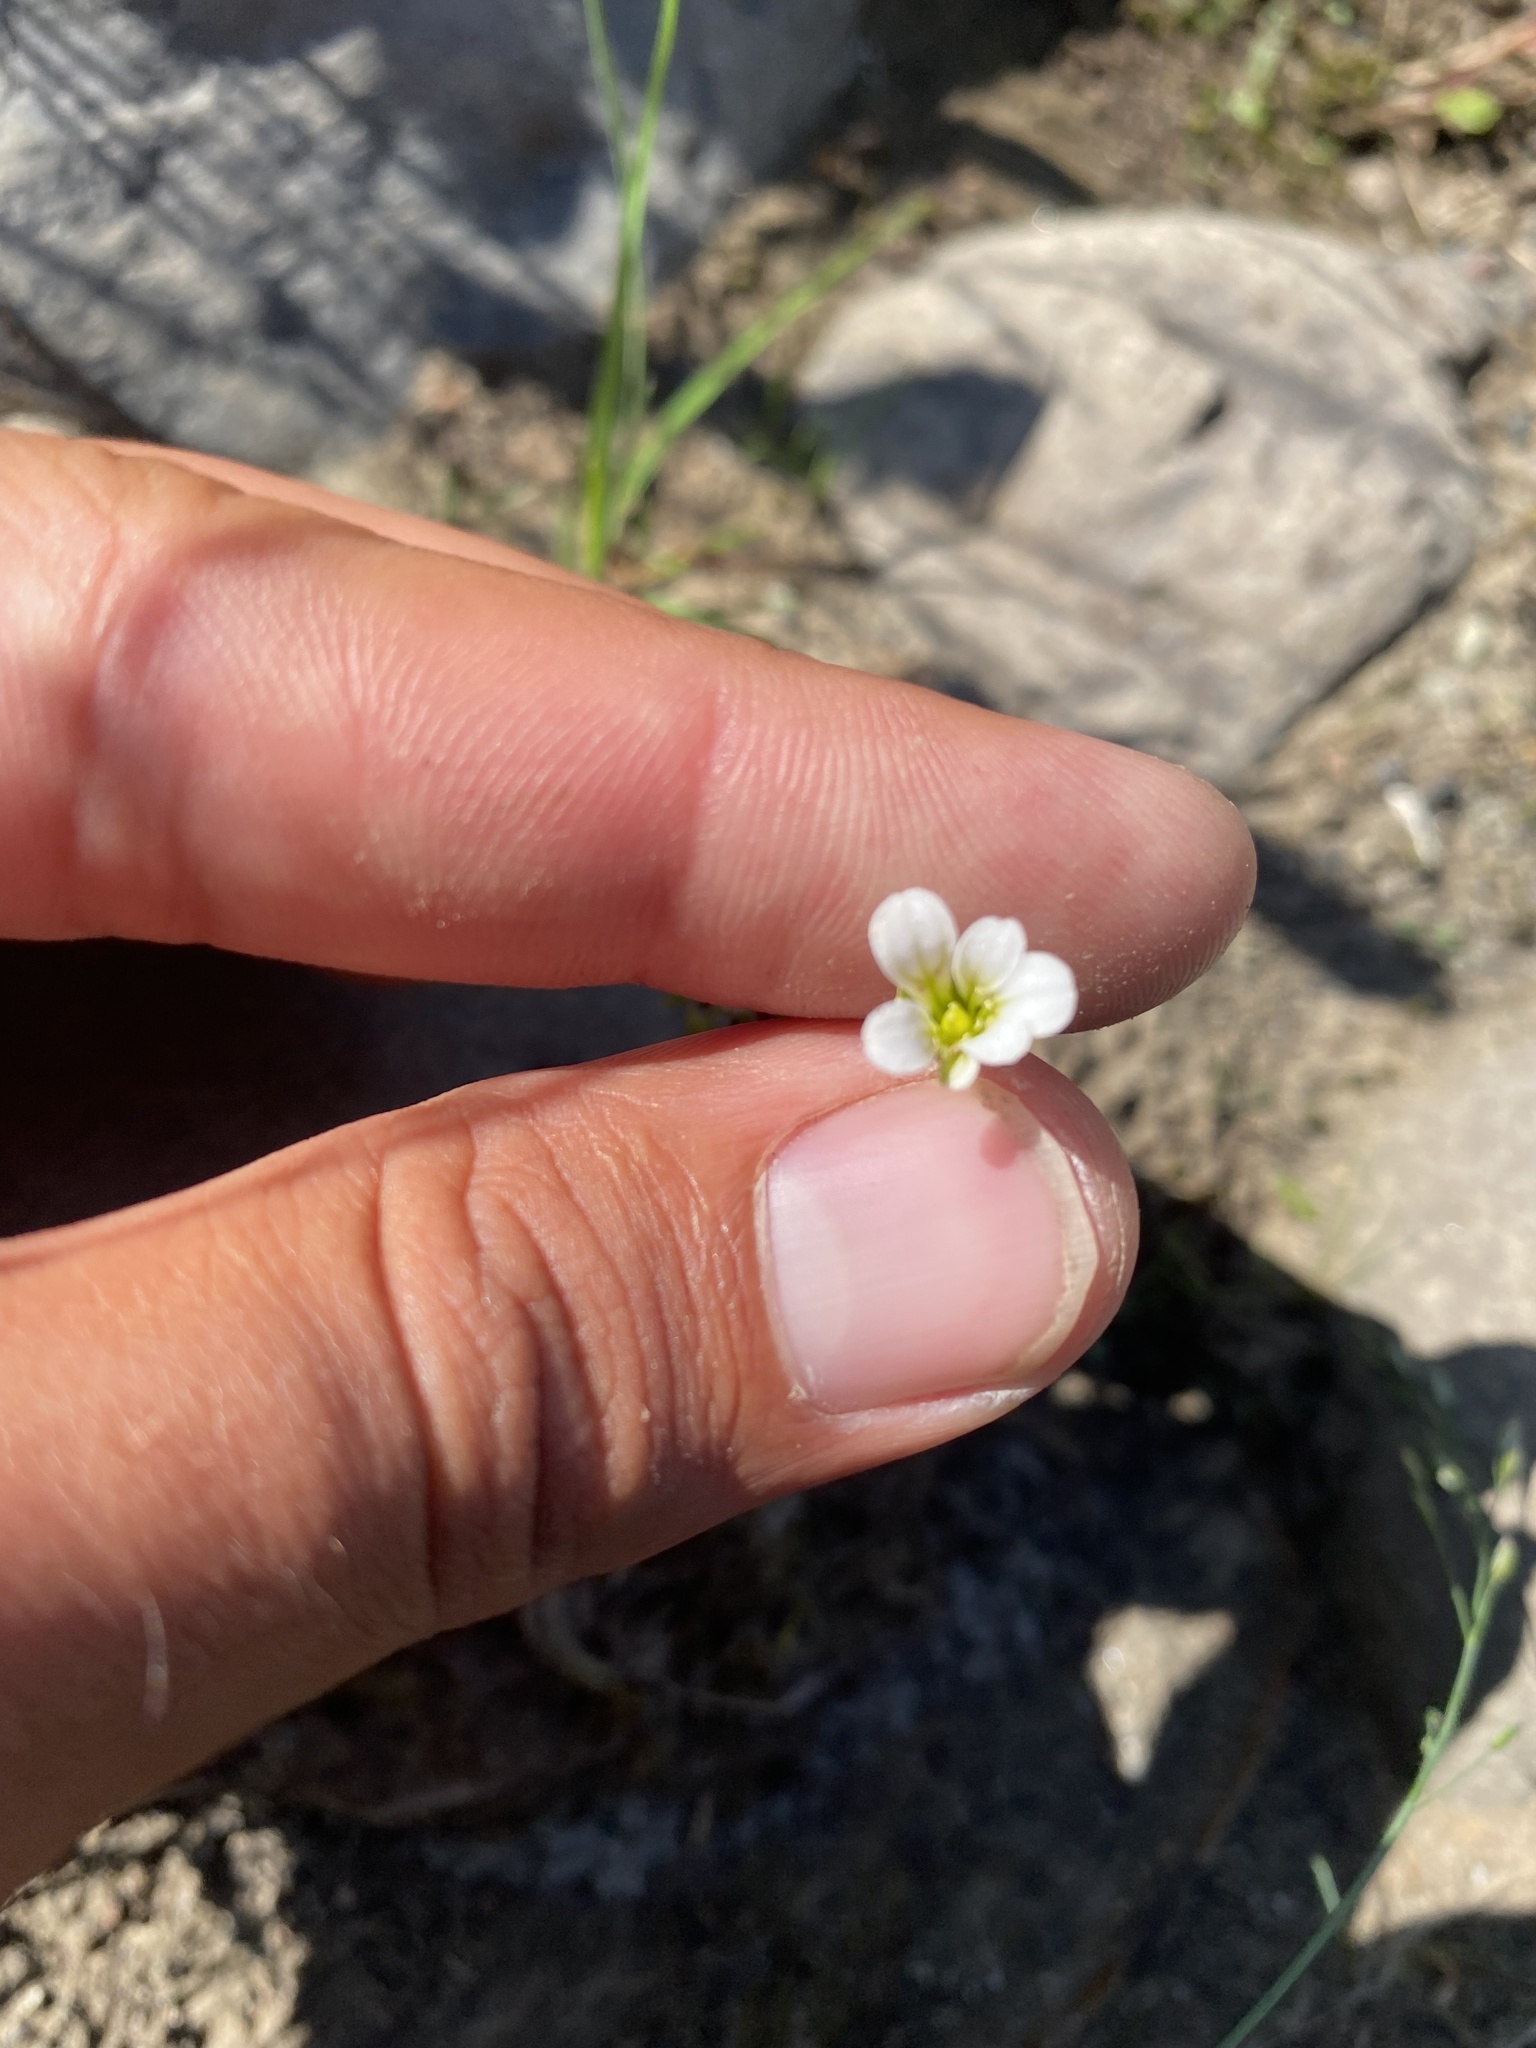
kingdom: Plantae
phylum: Tracheophyta
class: Magnoliopsida
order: Saxifragales
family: Saxifragaceae
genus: Saxifraga
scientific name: Saxifraga cernua
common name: Drooping saxifrage
